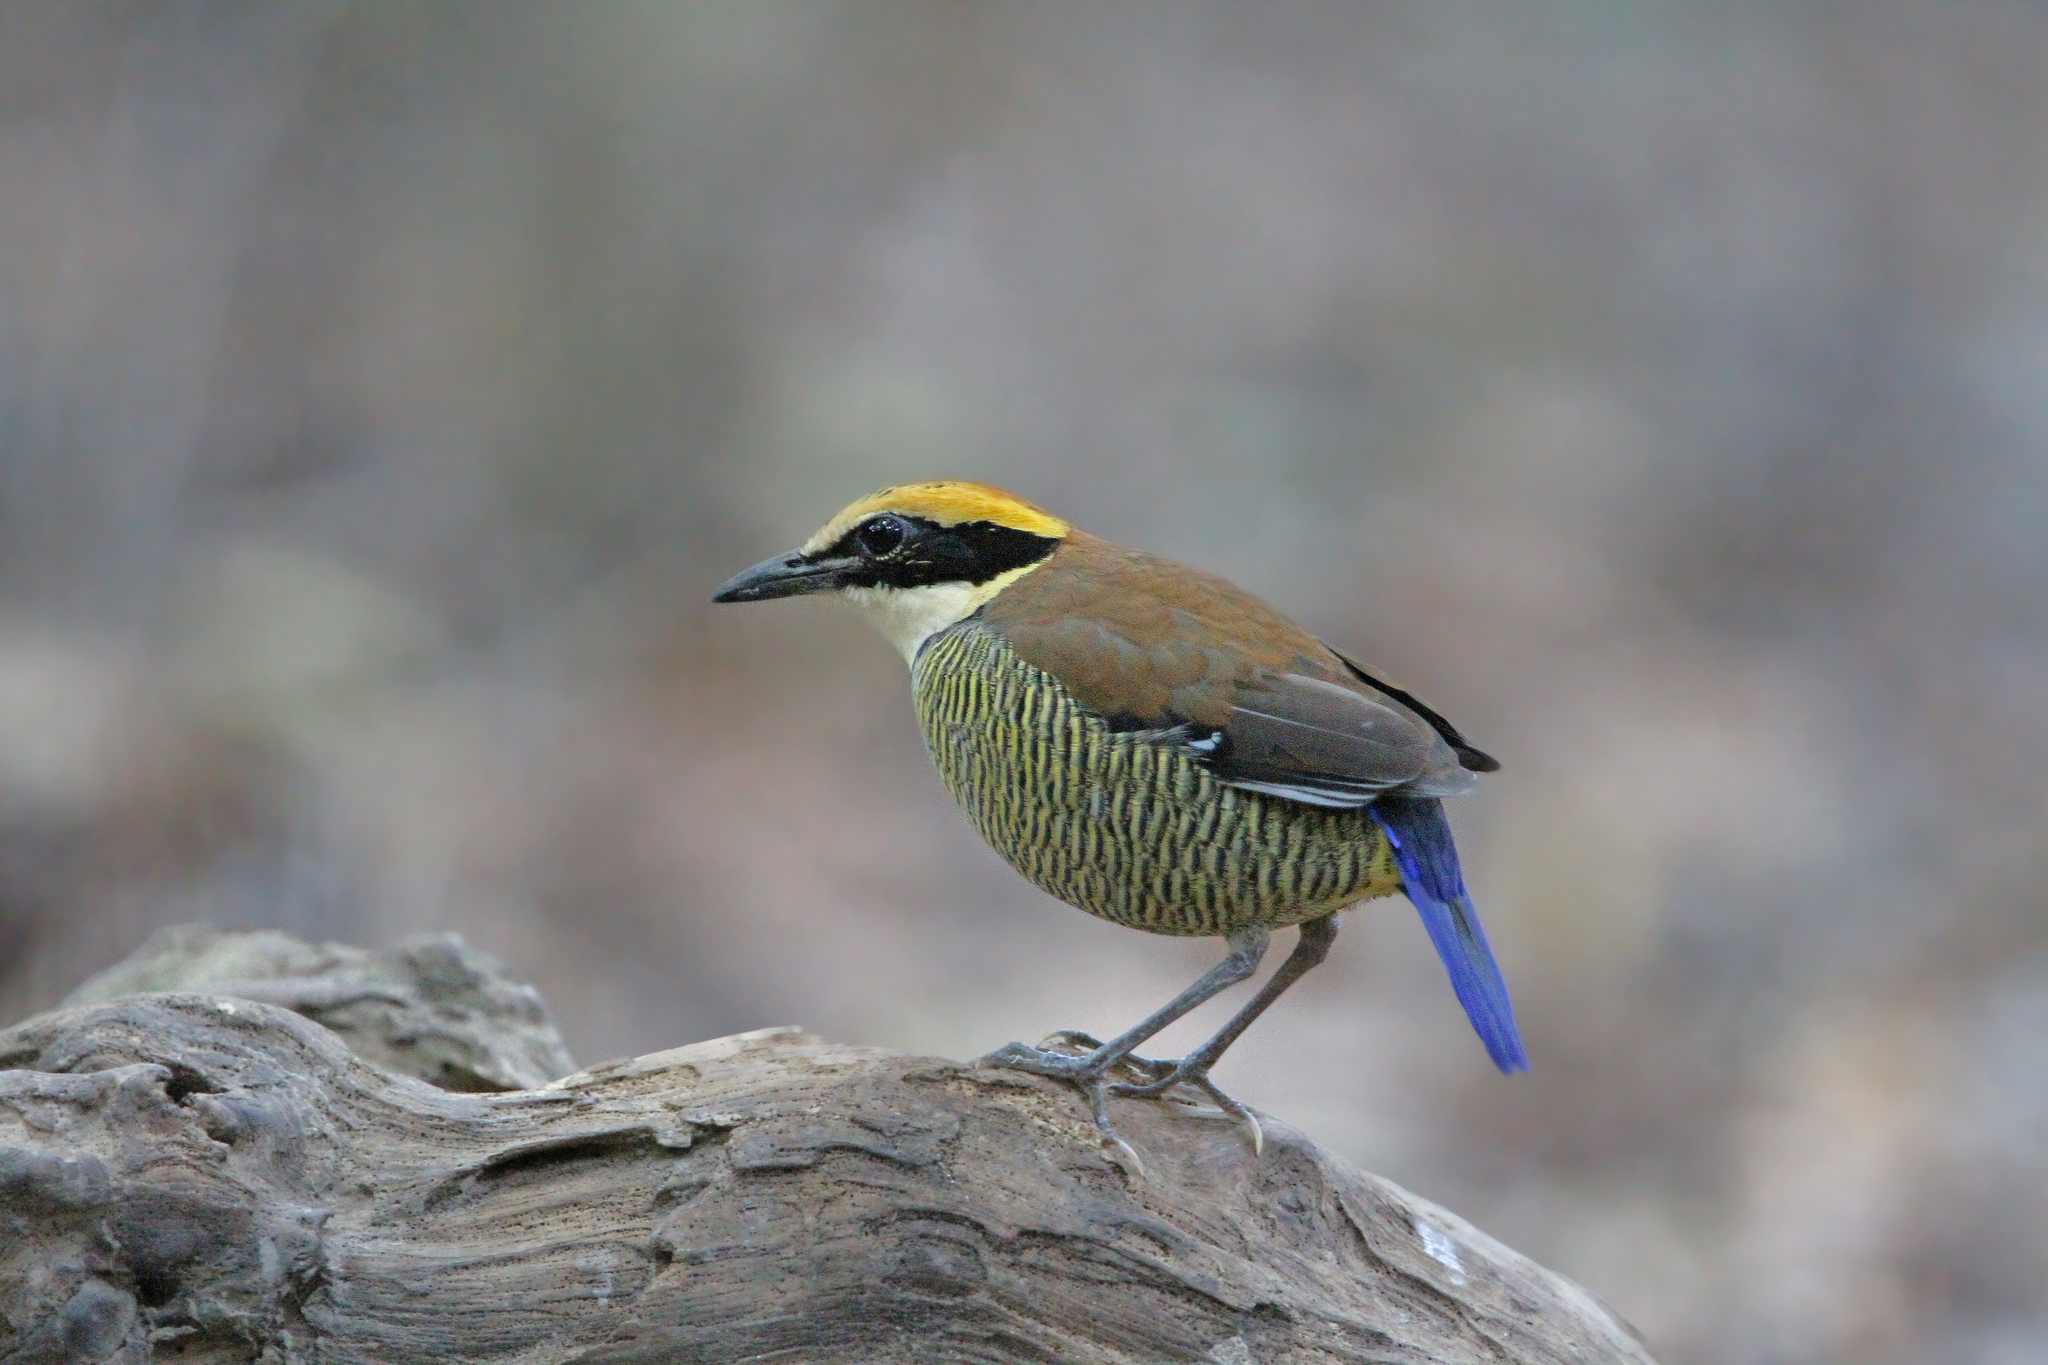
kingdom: Animalia
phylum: Chordata
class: Aves
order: Passeriformes
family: Pittidae
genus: Pitta
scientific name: Pitta guajana
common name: Banded pitta
